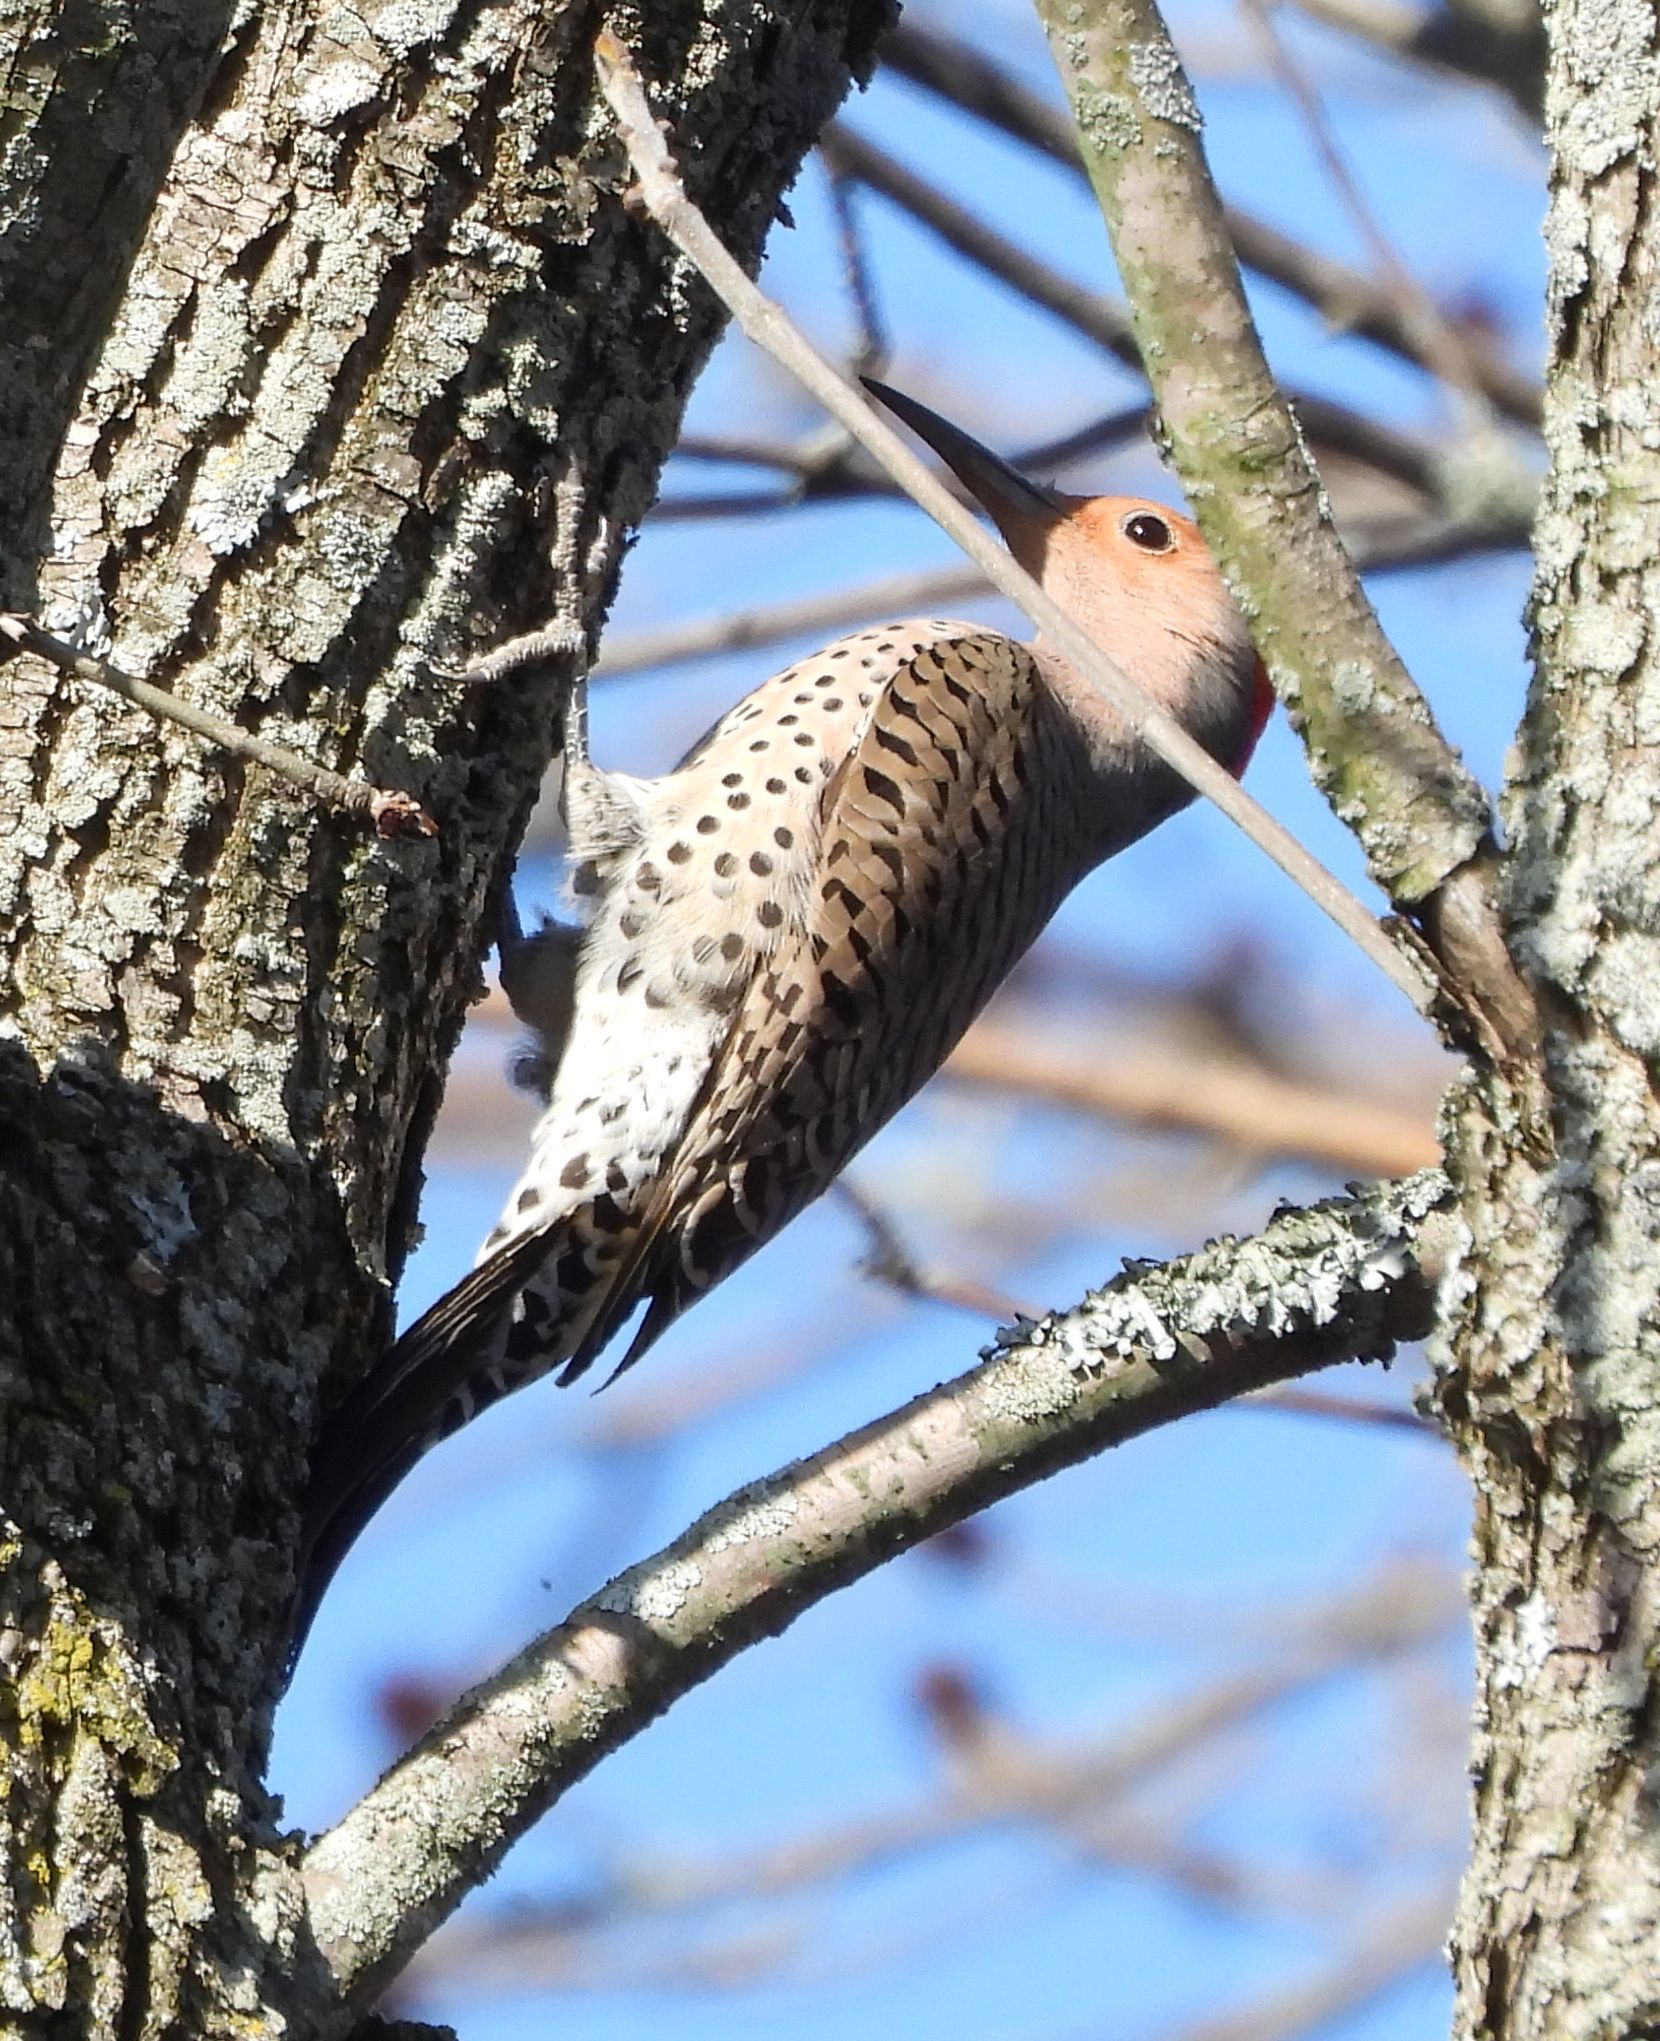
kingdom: Animalia
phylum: Chordata
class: Aves
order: Piciformes
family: Picidae
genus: Colaptes
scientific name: Colaptes auratus
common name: Northern flicker
